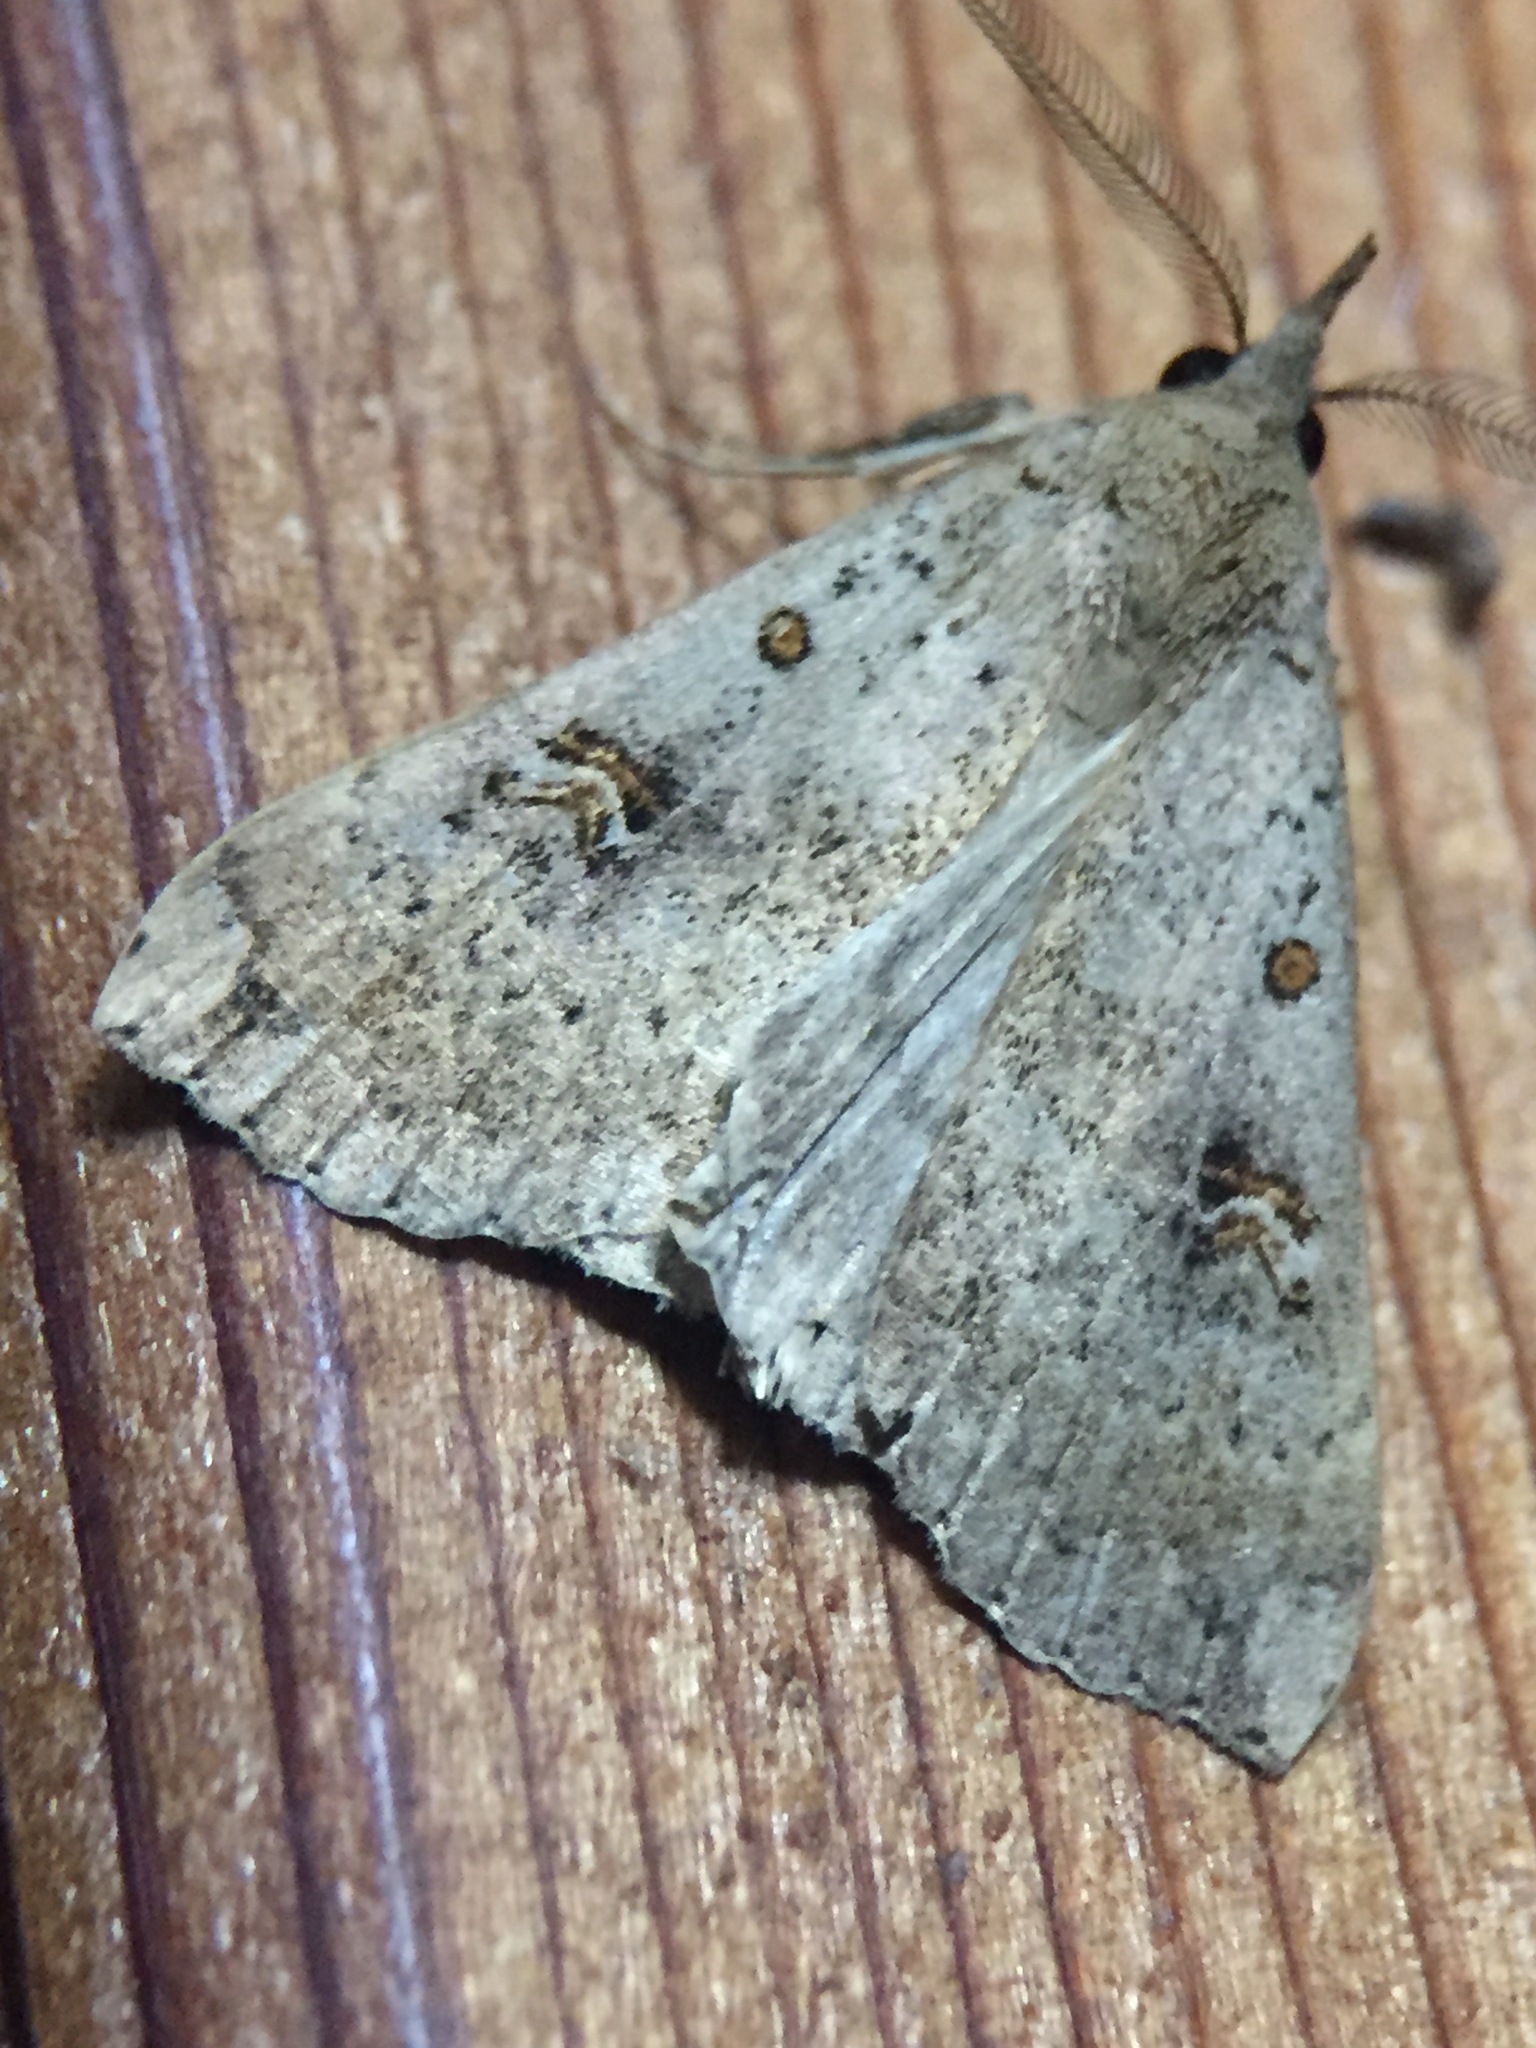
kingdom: Animalia
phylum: Arthropoda
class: Insecta
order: Lepidoptera
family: Erebidae
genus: Rhapsa
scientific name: Rhapsa scotosialis
